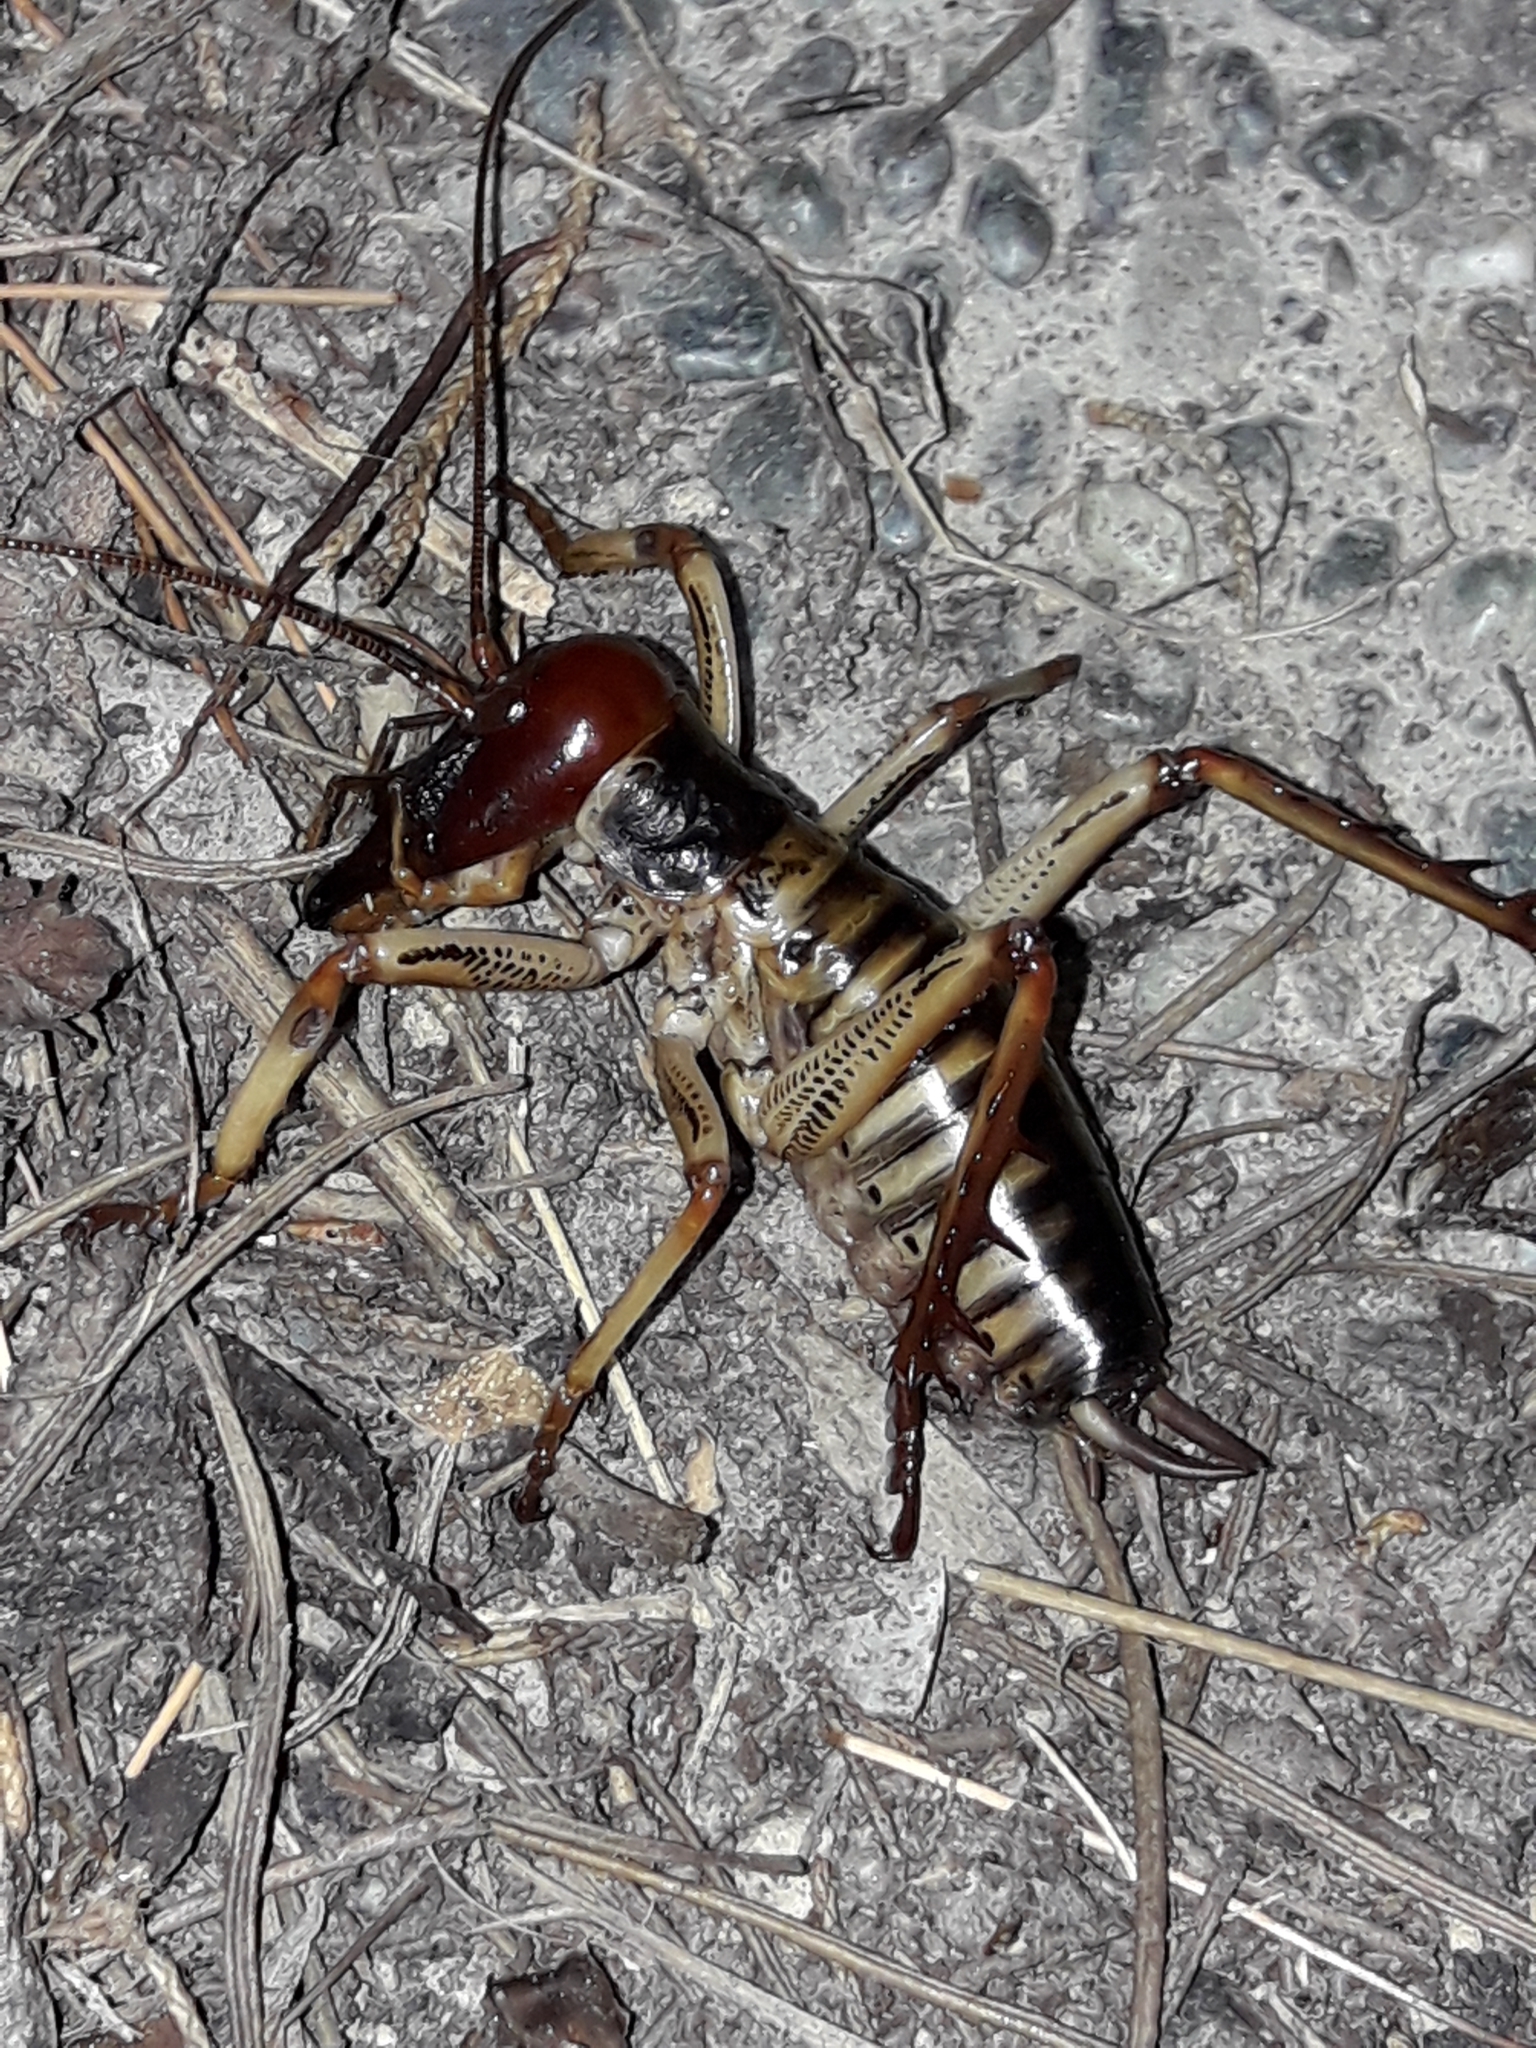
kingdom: Animalia
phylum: Arthropoda
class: Insecta
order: Orthoptera
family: Anostostomatidae
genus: Hemideina
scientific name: Hemideina crassidens
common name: Wellington tree weta
